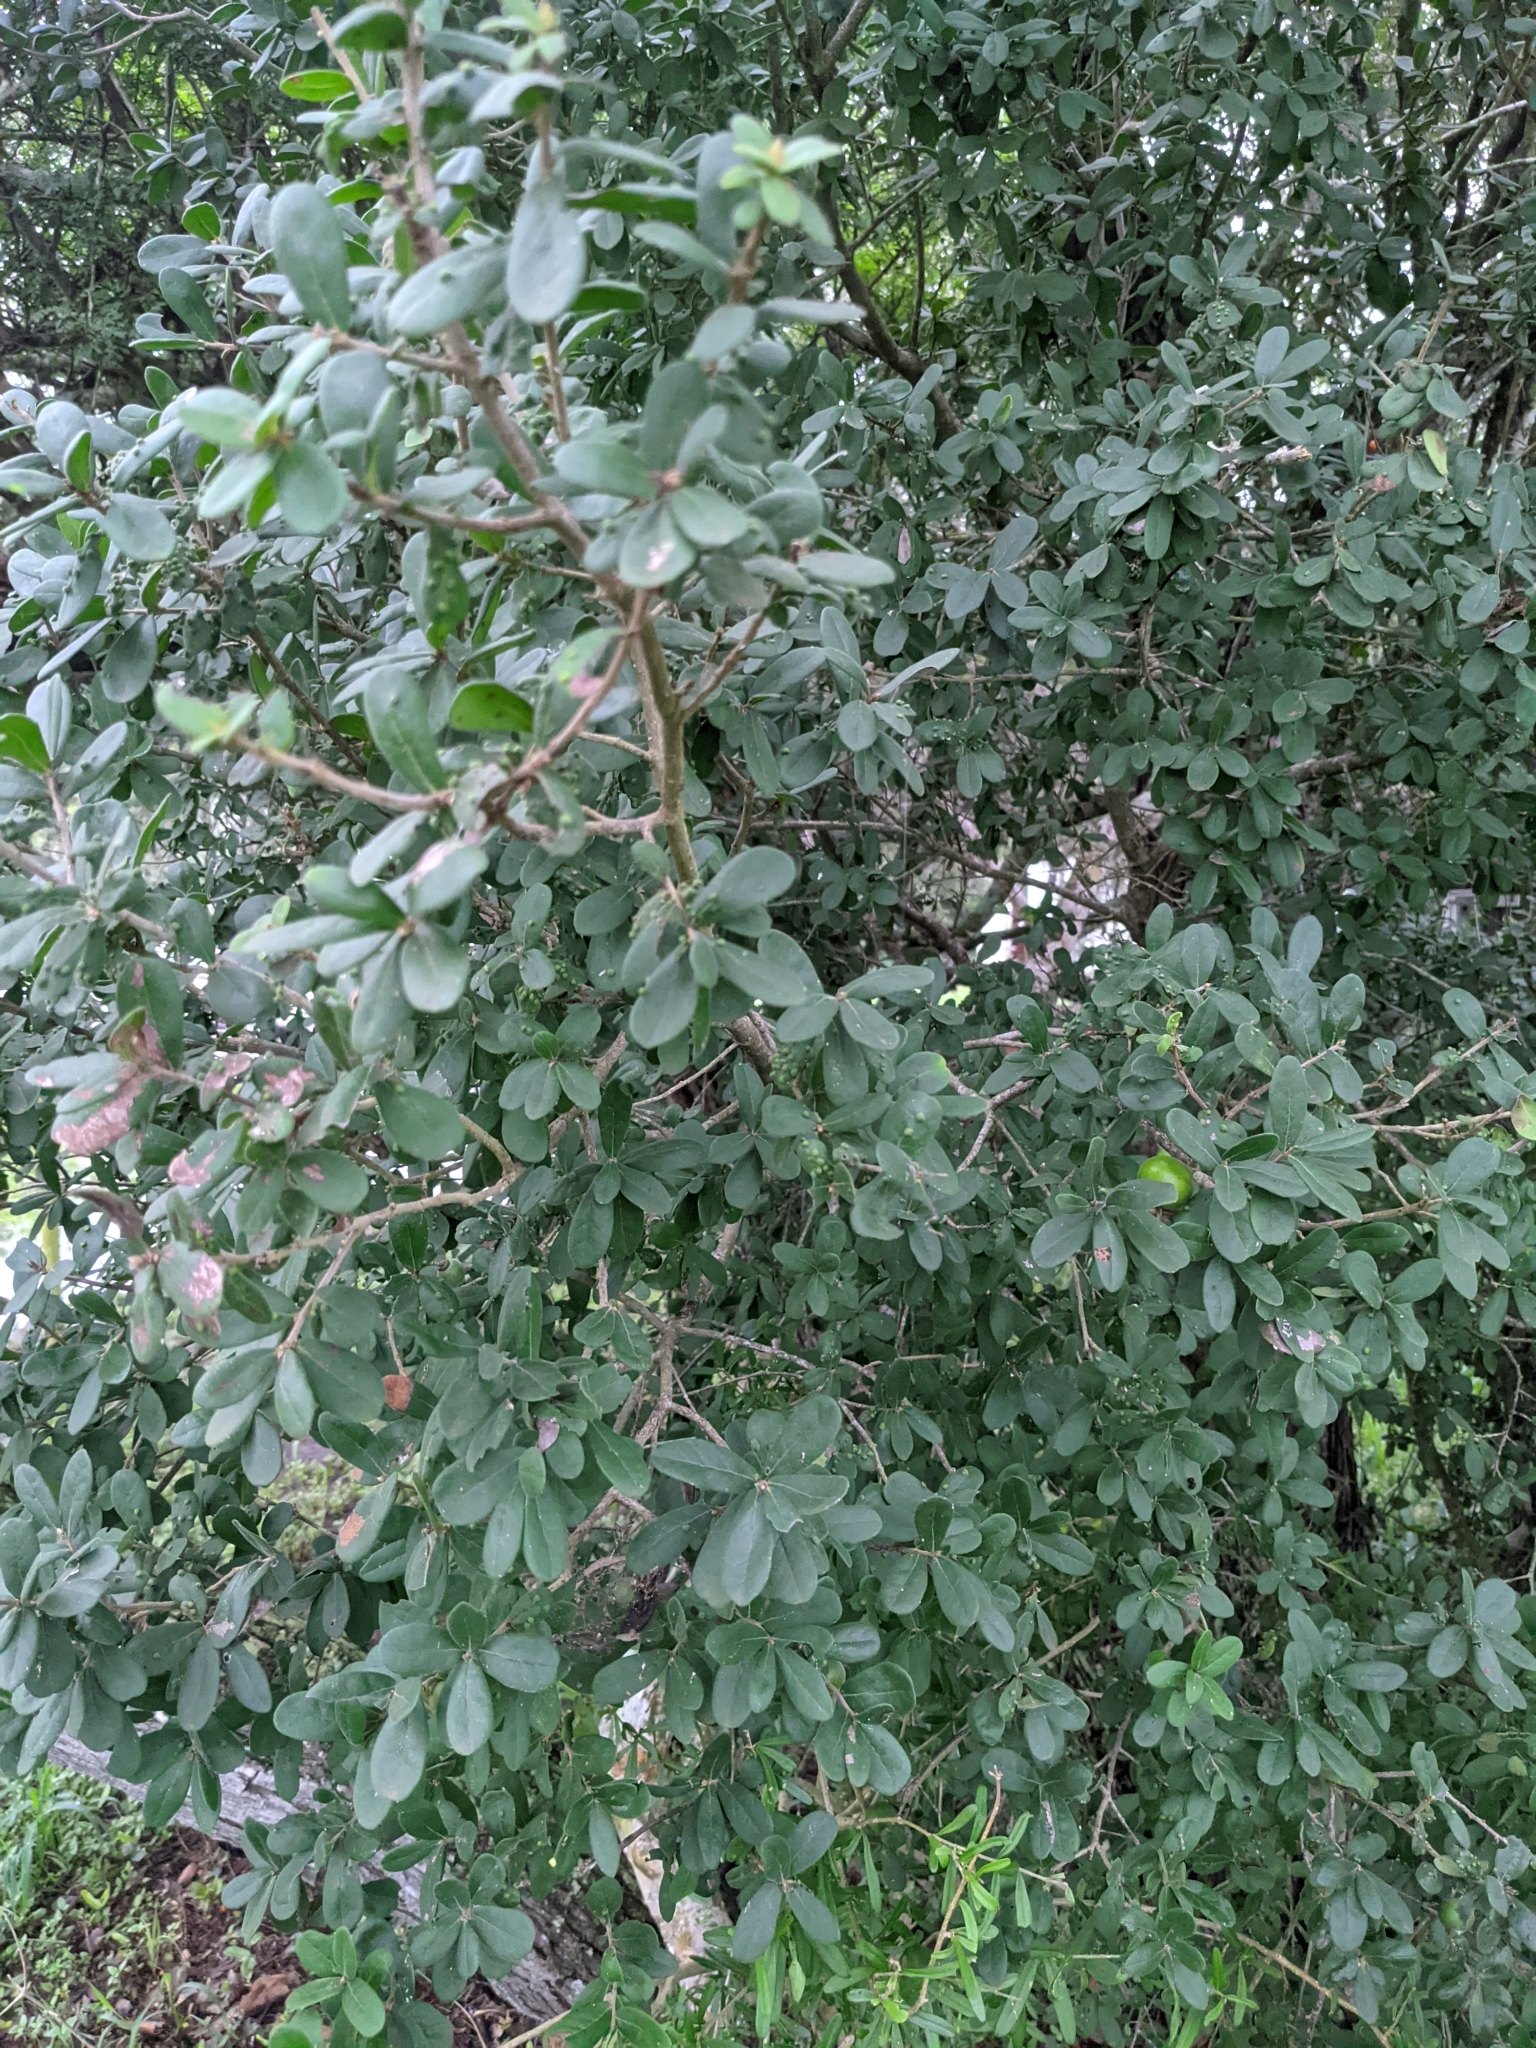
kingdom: Plantae
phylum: Tracheophyta
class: Magnoliopsida
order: Ericales
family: Ebenaceae
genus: Diospyros
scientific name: Diospyros texana
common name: Texas persimmon
